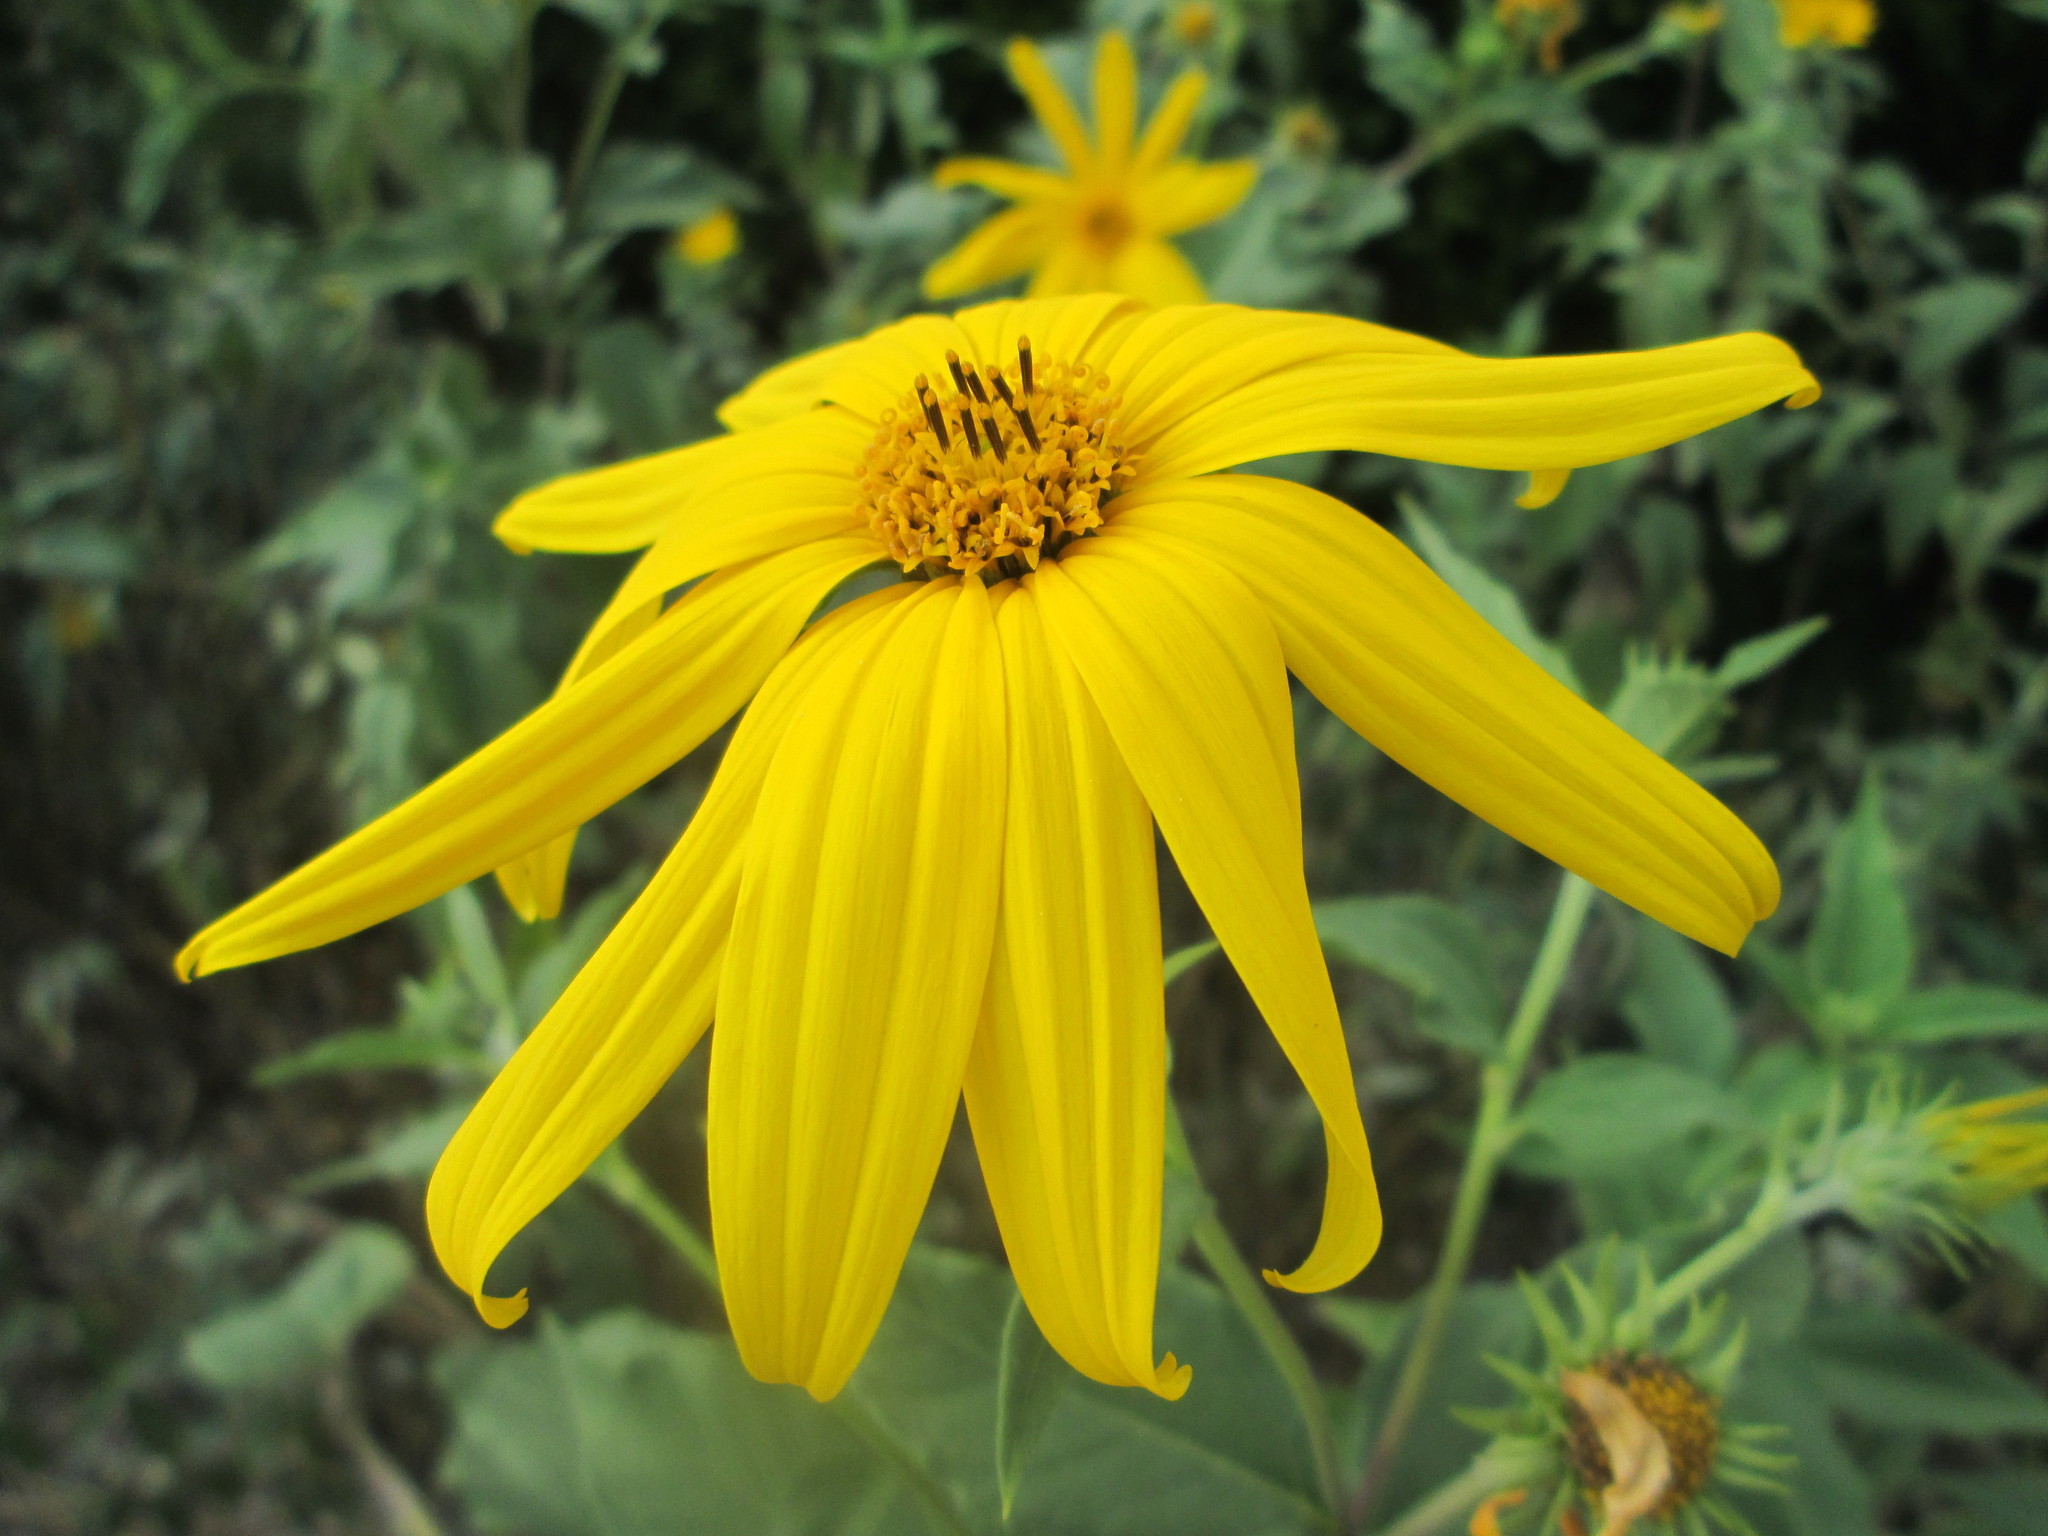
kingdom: Plantae
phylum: Tracheophyta
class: Magnoliopsida
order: Asterales
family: Asteraceae
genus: Helianthus
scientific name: Helianthus tuberosus
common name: Jerusalem artichoke
